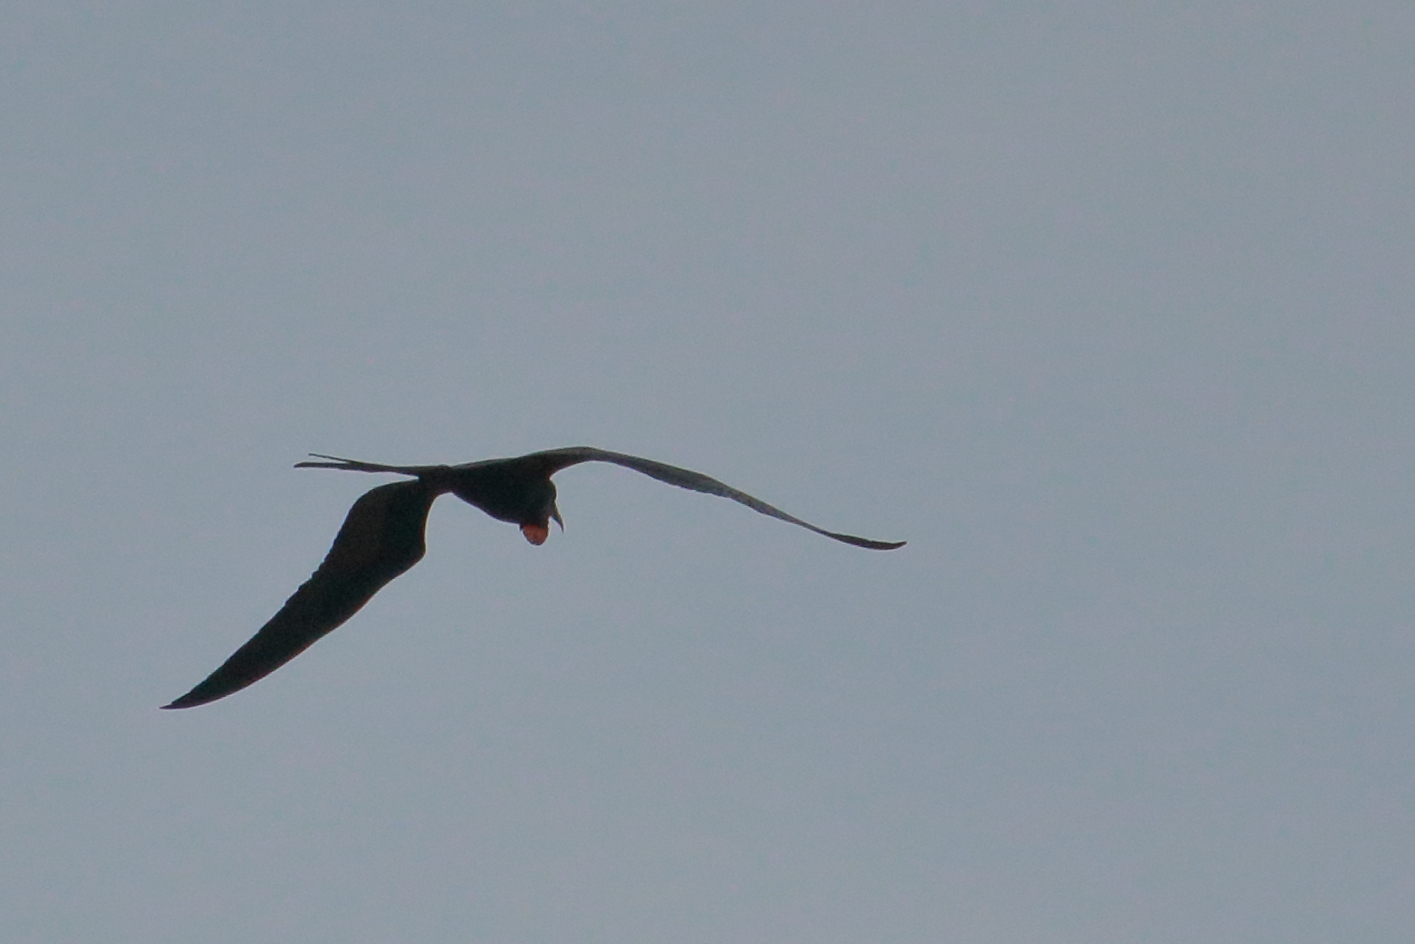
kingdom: Animalia
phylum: Chordata
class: Aves
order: Suliformes
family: Fregatidae
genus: Fregata
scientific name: Fregata magnificens
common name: Magnificent frigatebird
